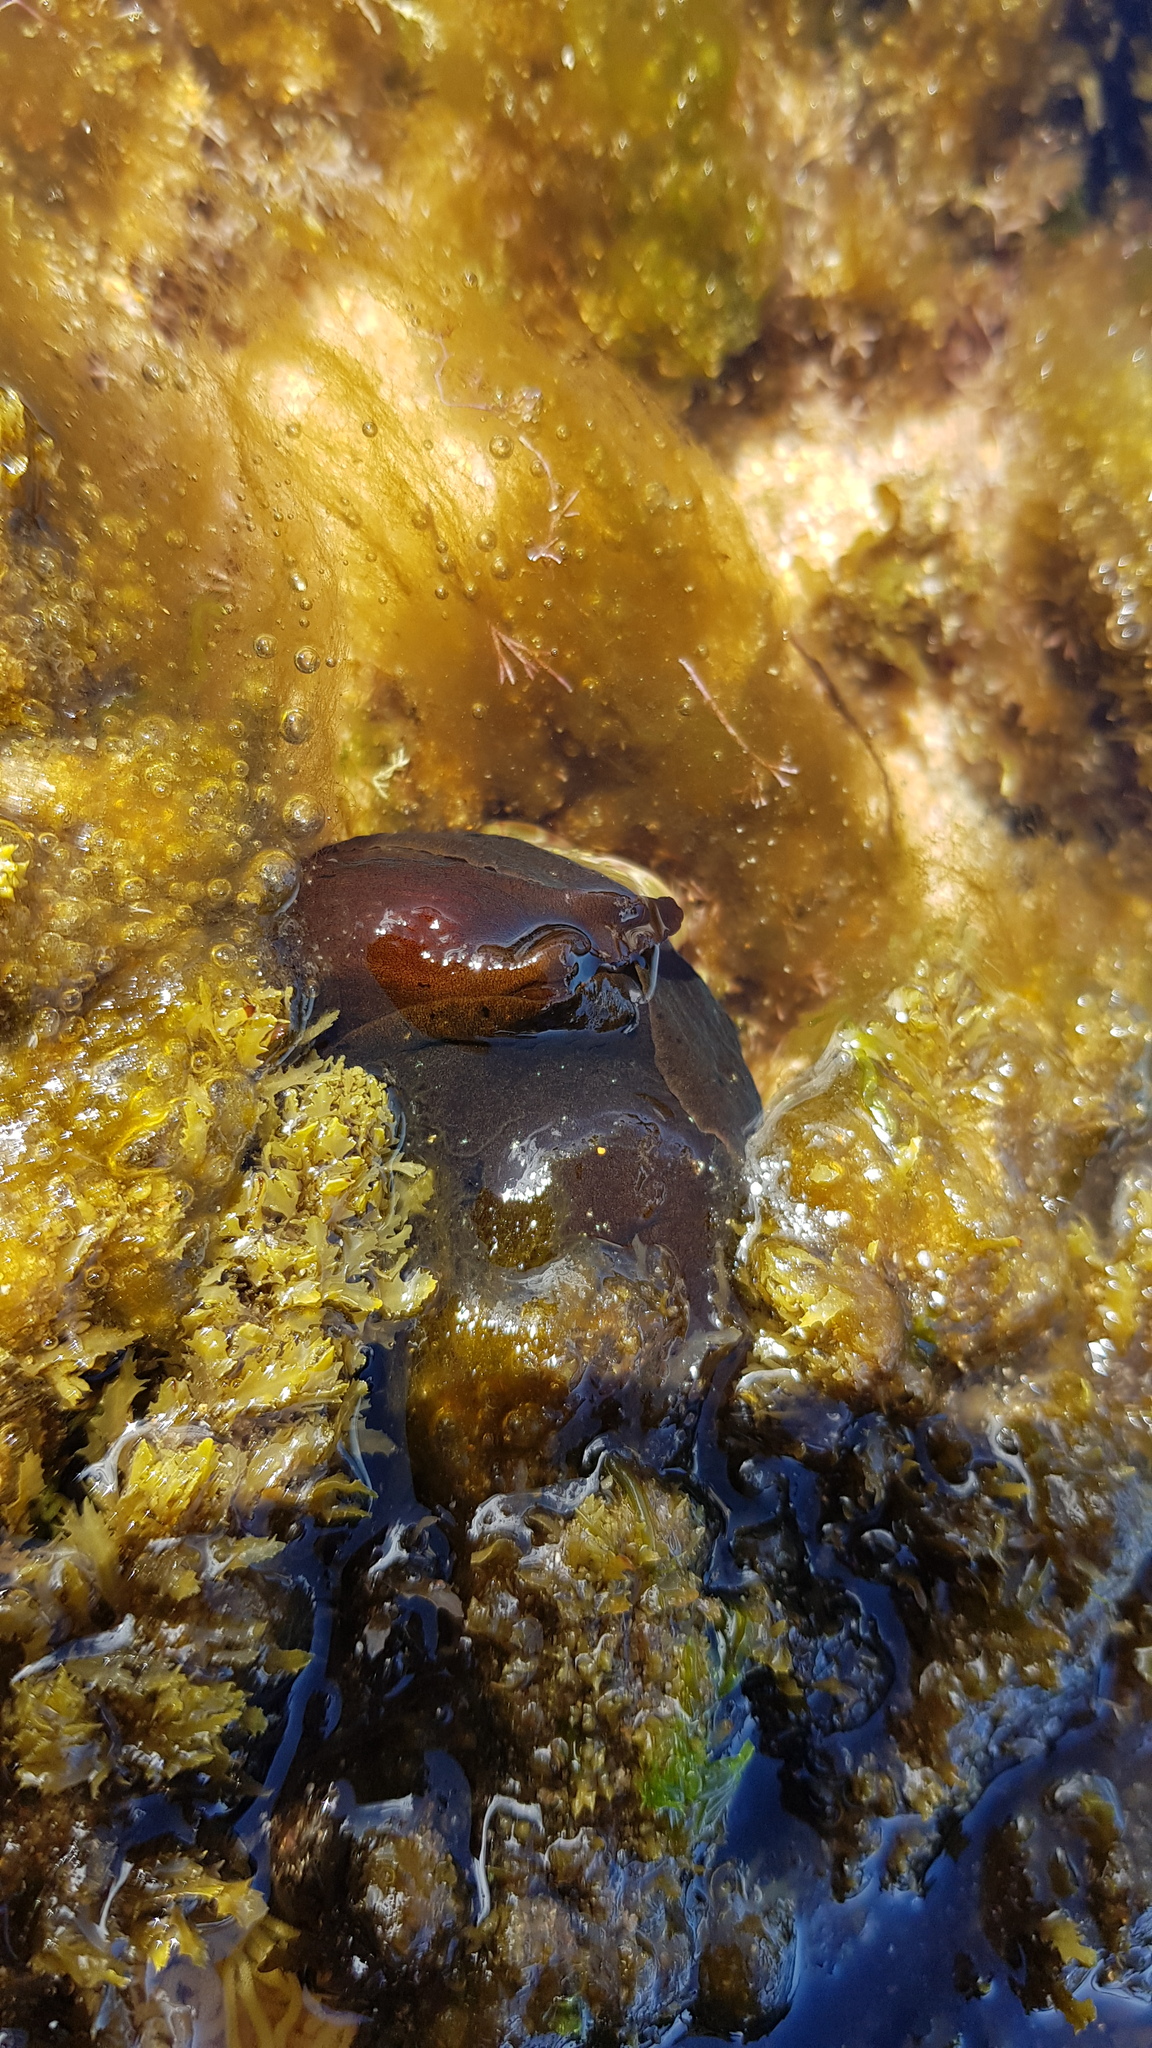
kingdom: Animalia
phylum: Mollusca
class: Gastropoda
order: Aplysiida
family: Aplysiidae
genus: Aplysia
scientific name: Aplysia juliana
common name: Walking sea hare
